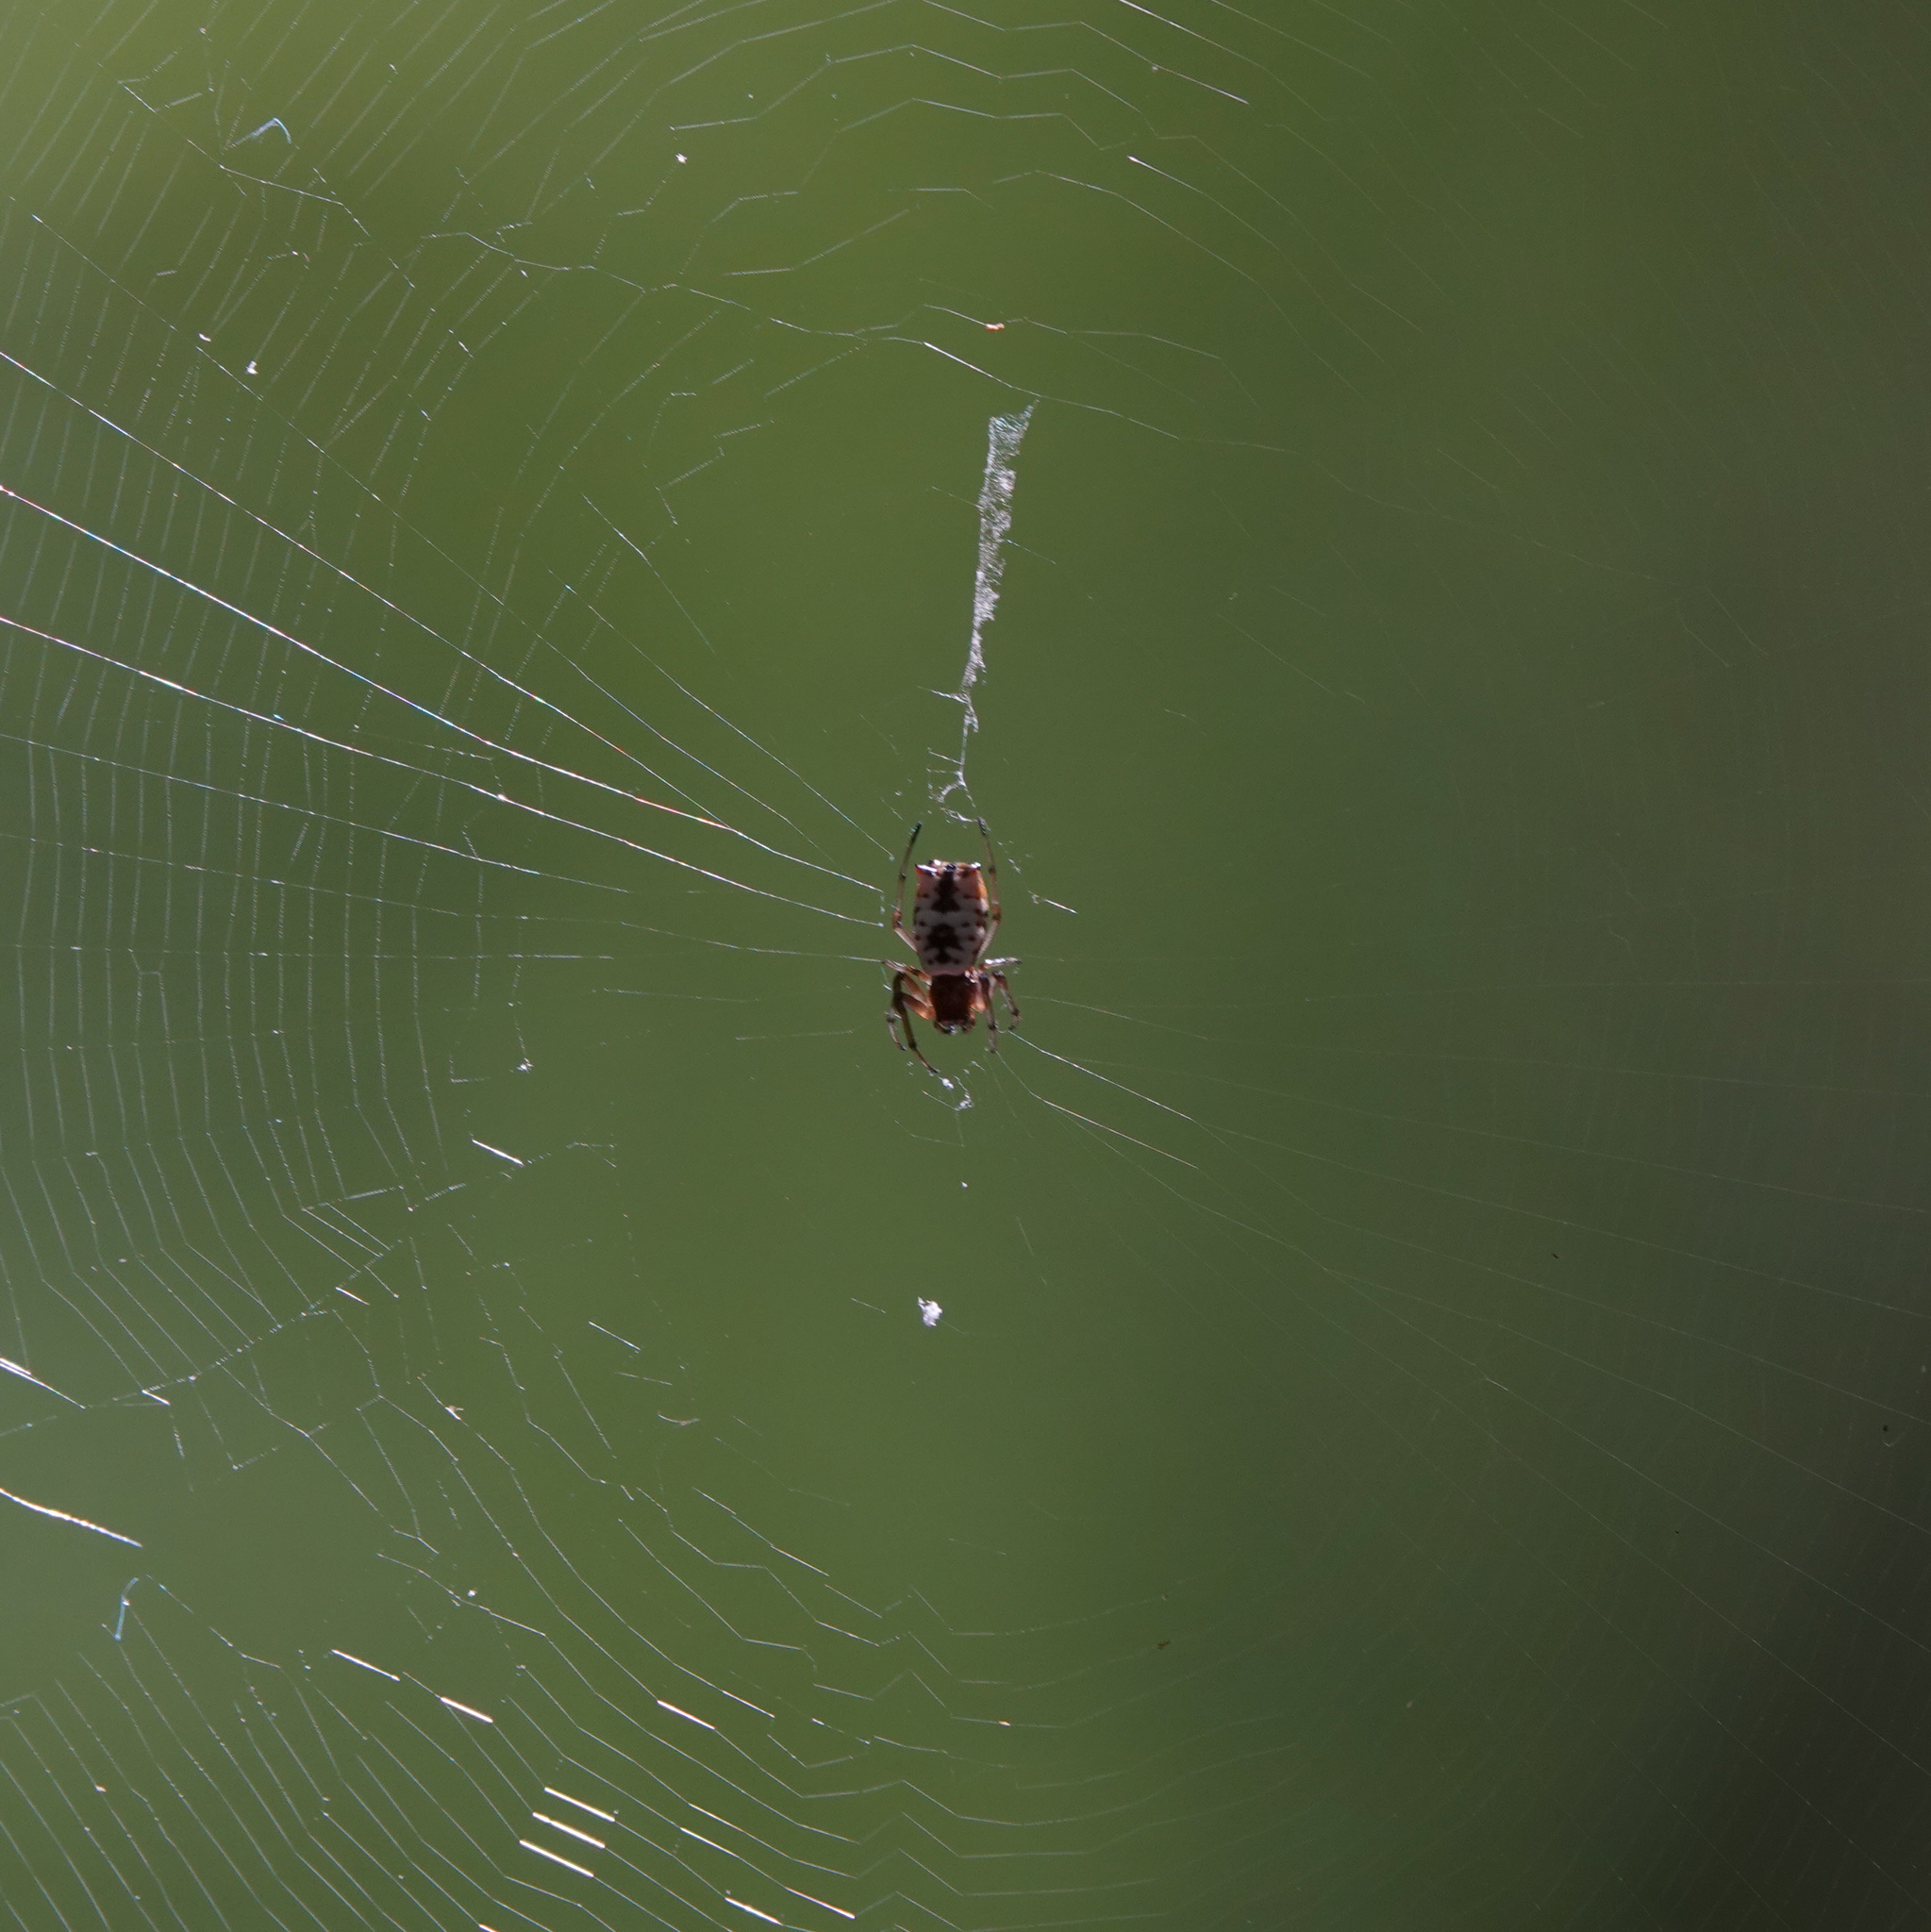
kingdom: Animalia
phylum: Arthropoda
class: Arachnida
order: Araneae
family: Araneidae
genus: Micrathena
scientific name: Micrathena mitrata
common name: Orb weavers
